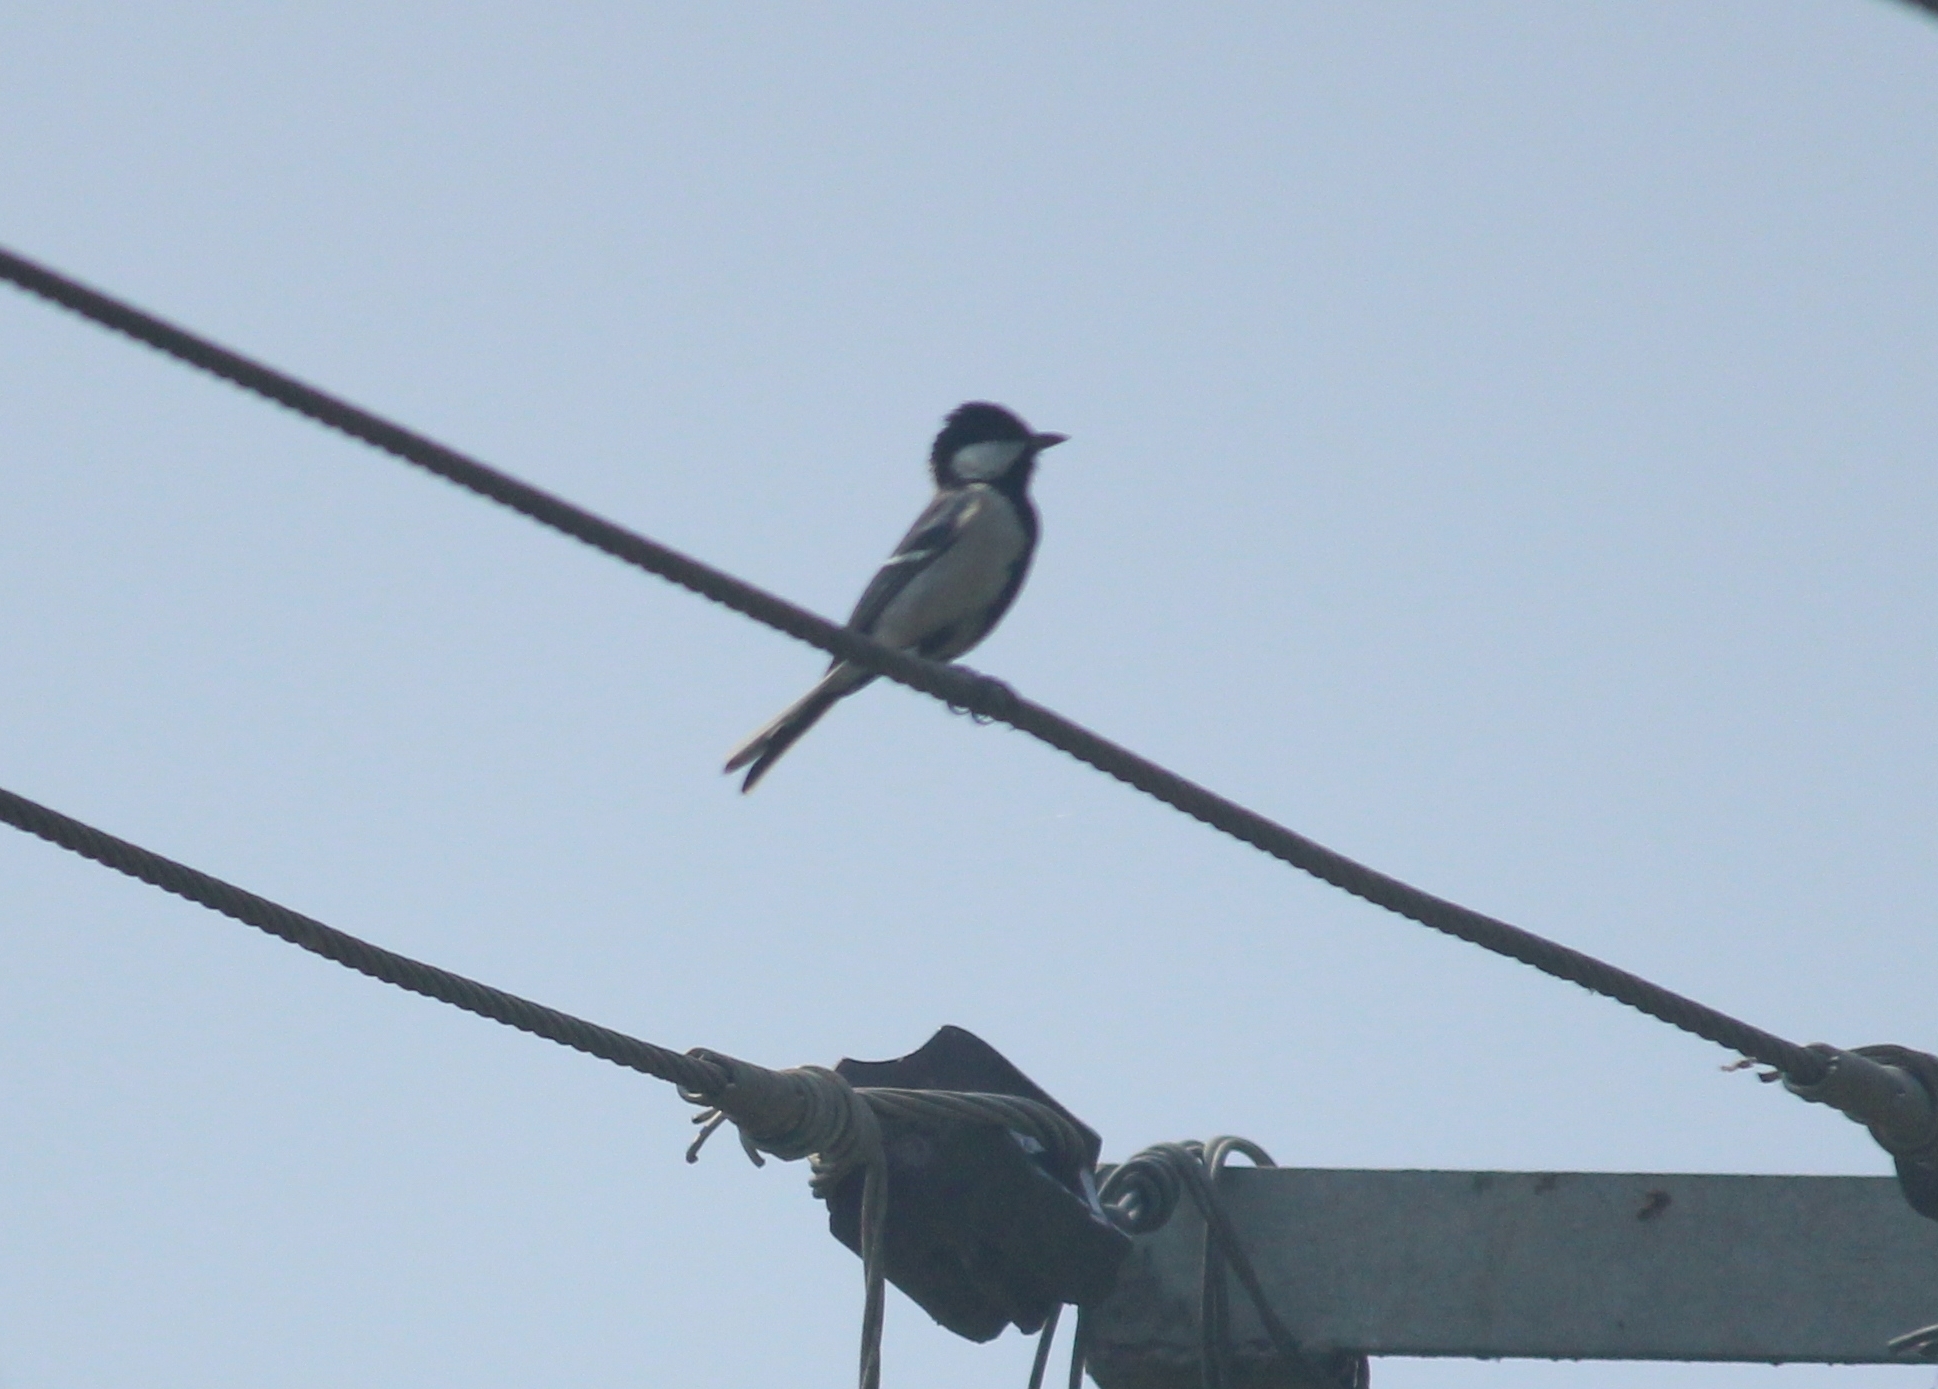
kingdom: Animalia
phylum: Chordata
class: Aves
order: Passeriformes
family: Paridae
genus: Parus
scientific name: Parus cinereus
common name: Cinereous tit
